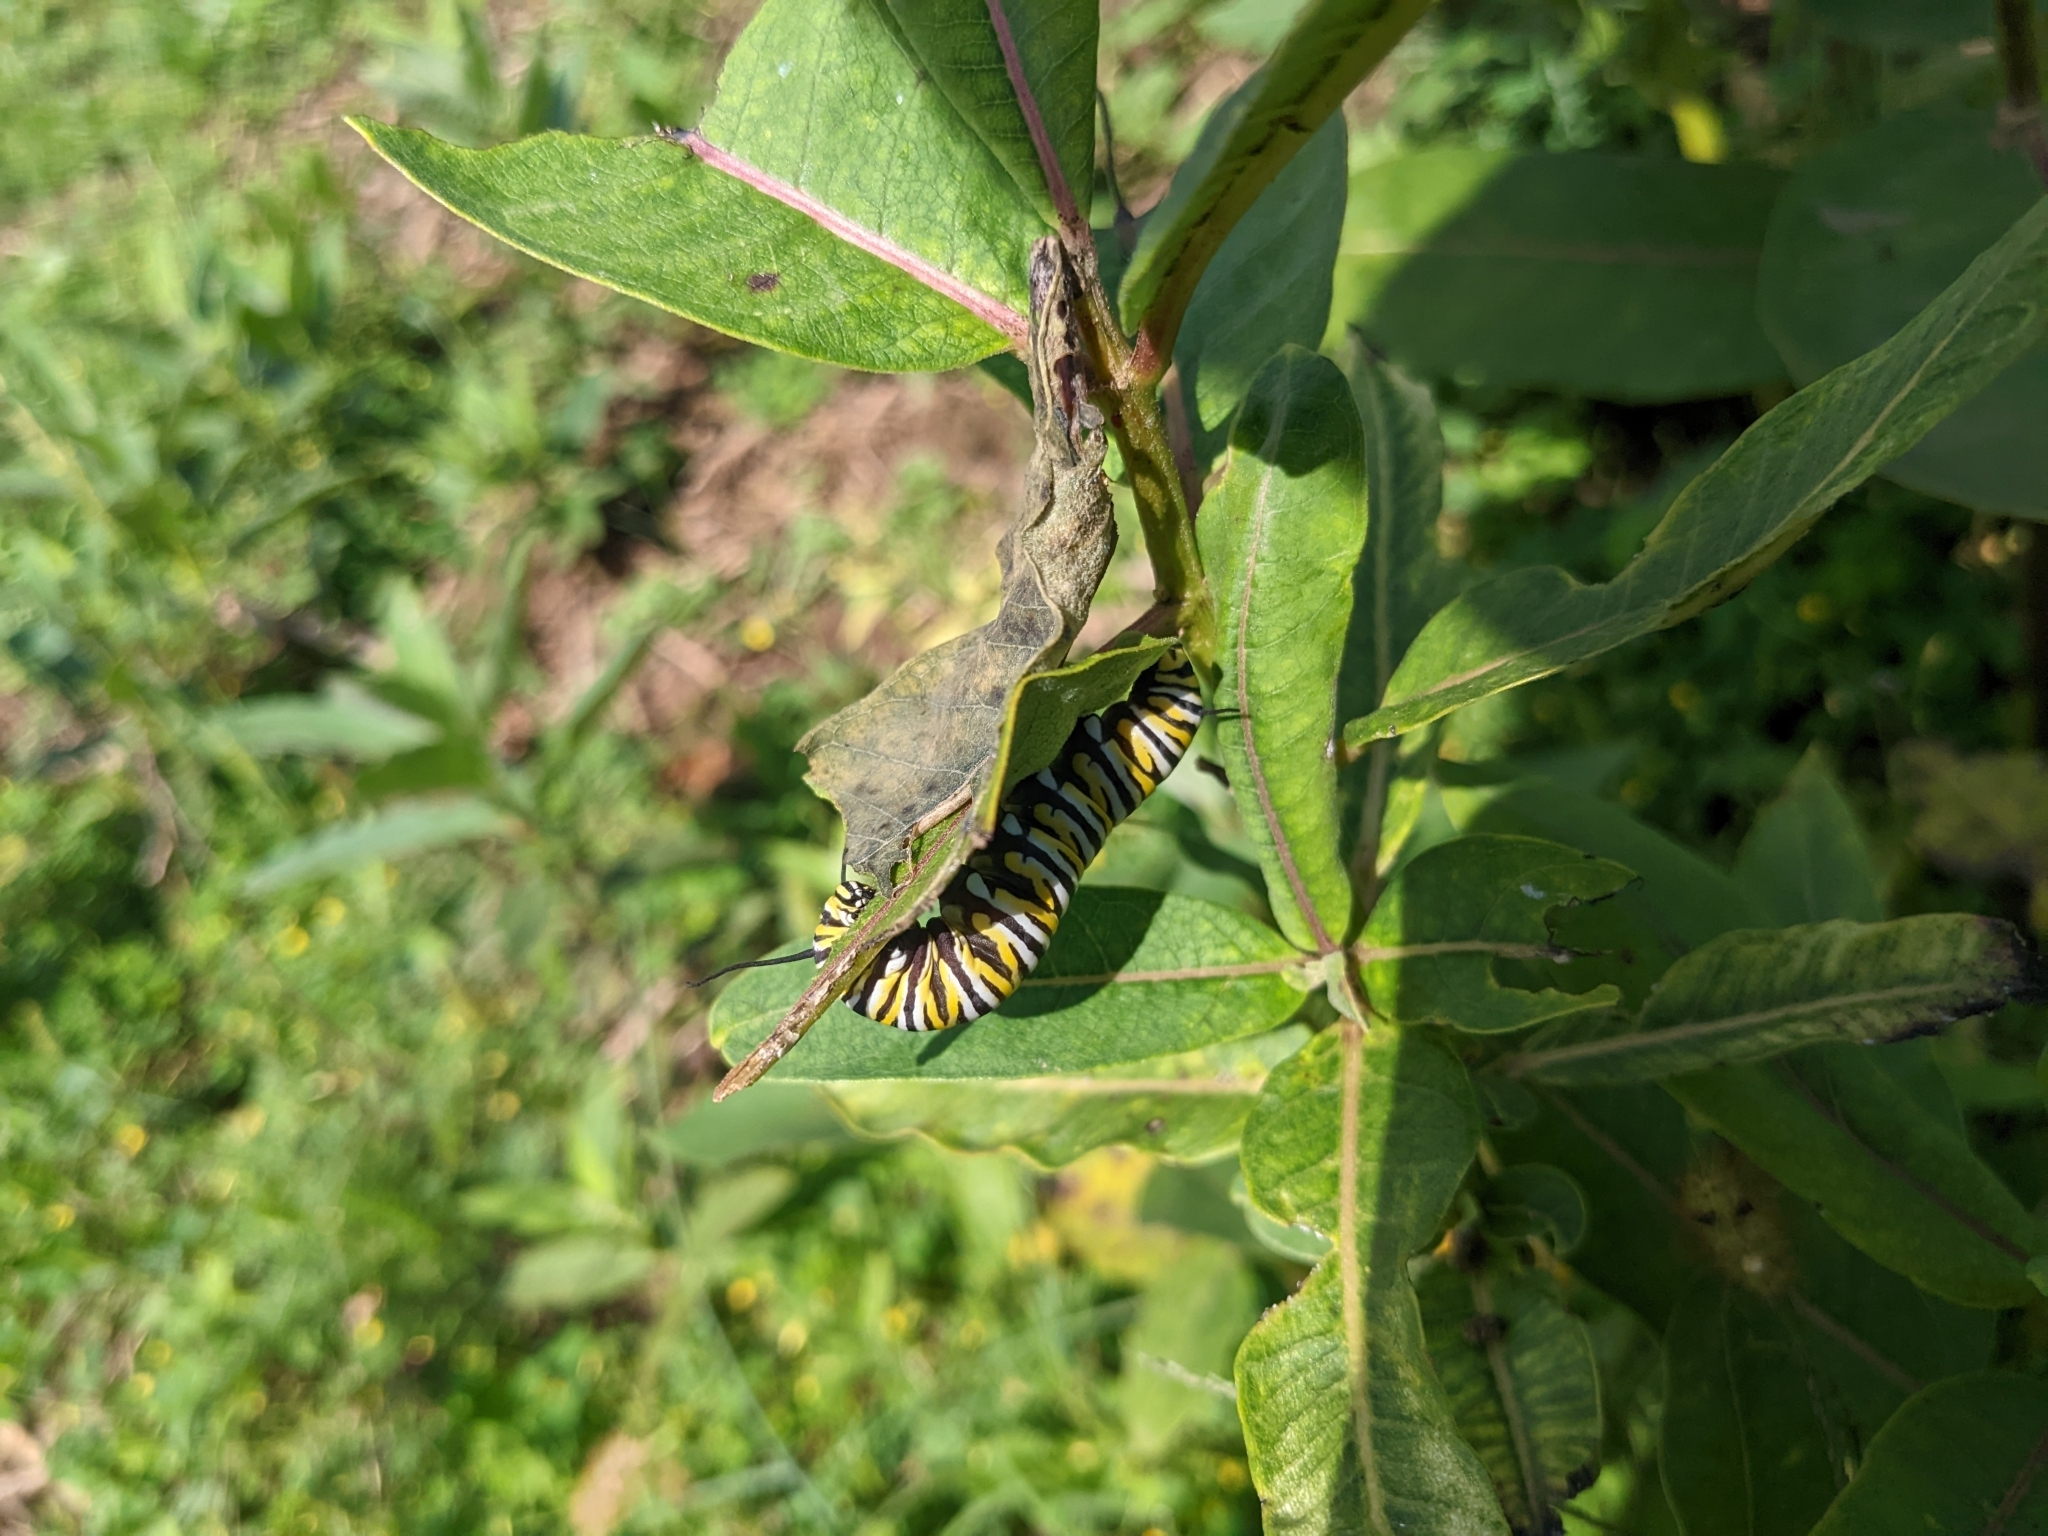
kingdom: Animalia
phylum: Arthropoda
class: Insecta
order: Lepidoptera
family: Nymphalidae
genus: Danaus
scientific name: Danaus plexippus
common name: Monarch
